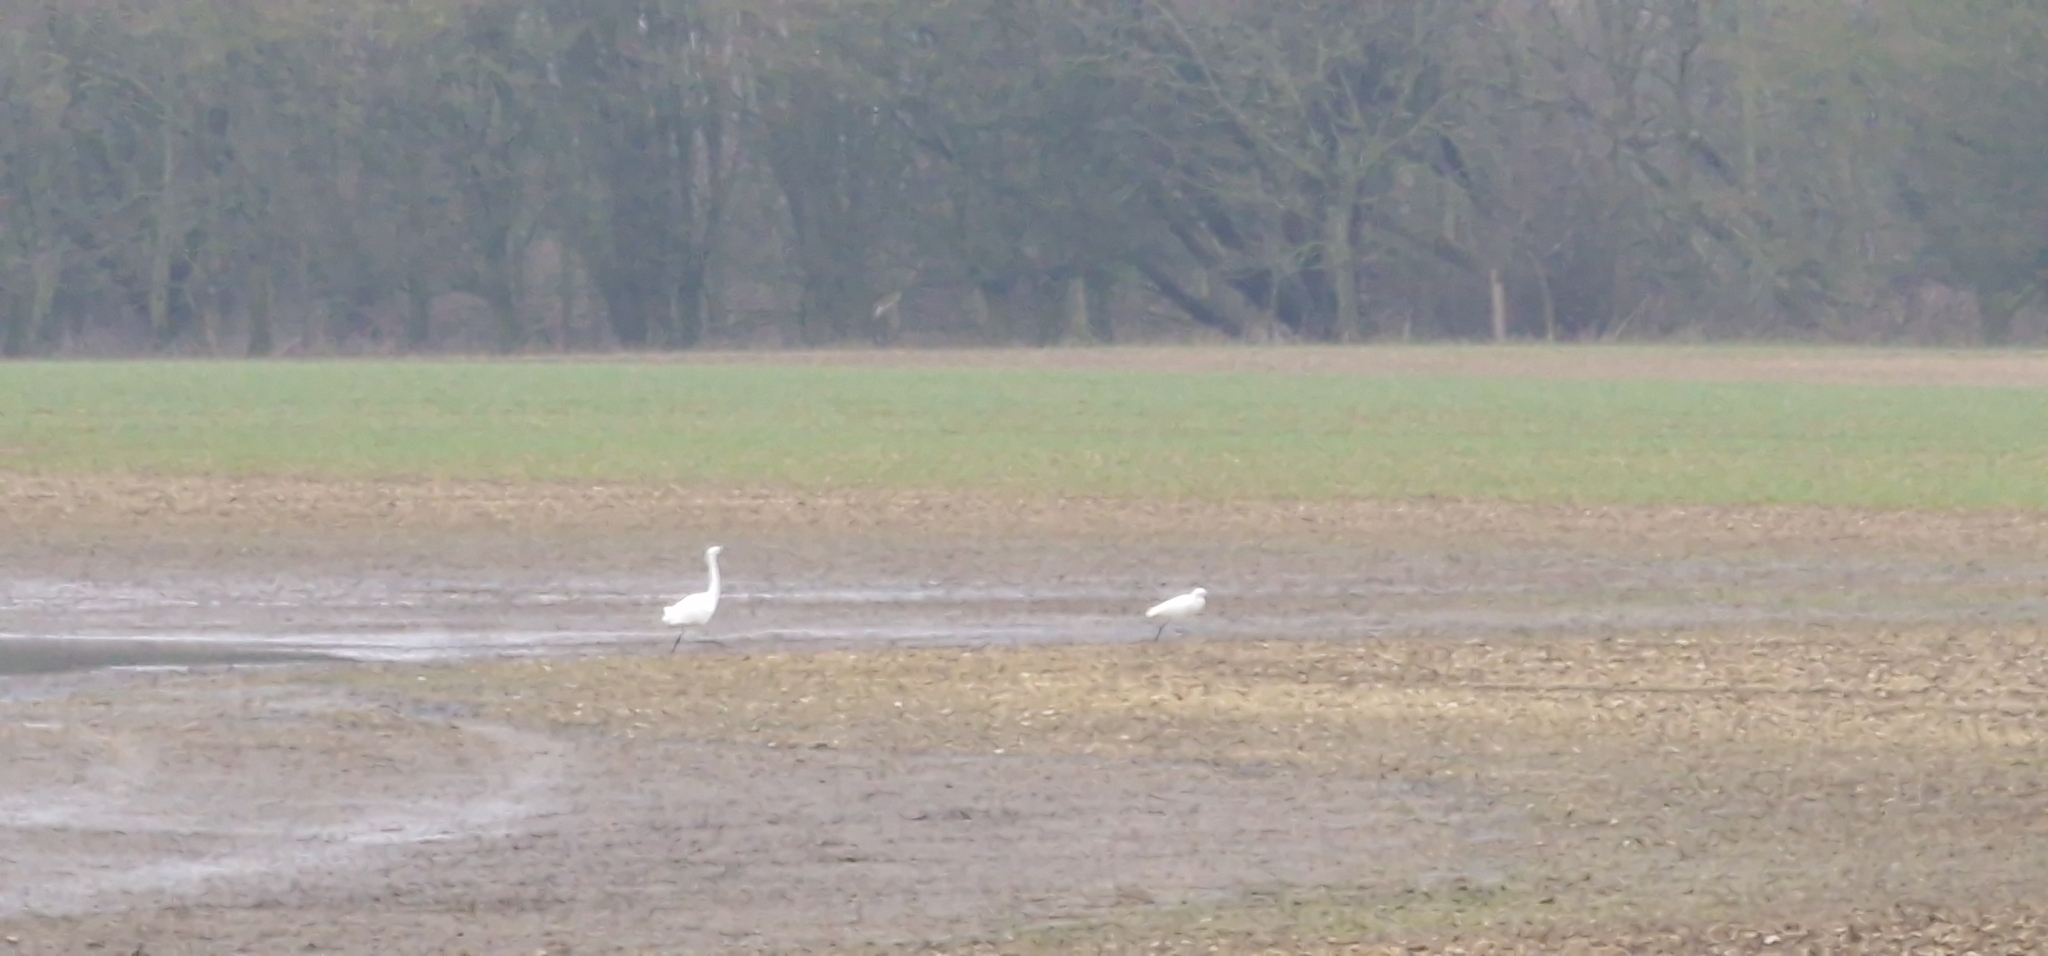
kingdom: Animalia
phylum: Chordata
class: Aves
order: Pelecaniformes
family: Ardeidae
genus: Egretta
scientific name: Egretta garzetta
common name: Little egret
